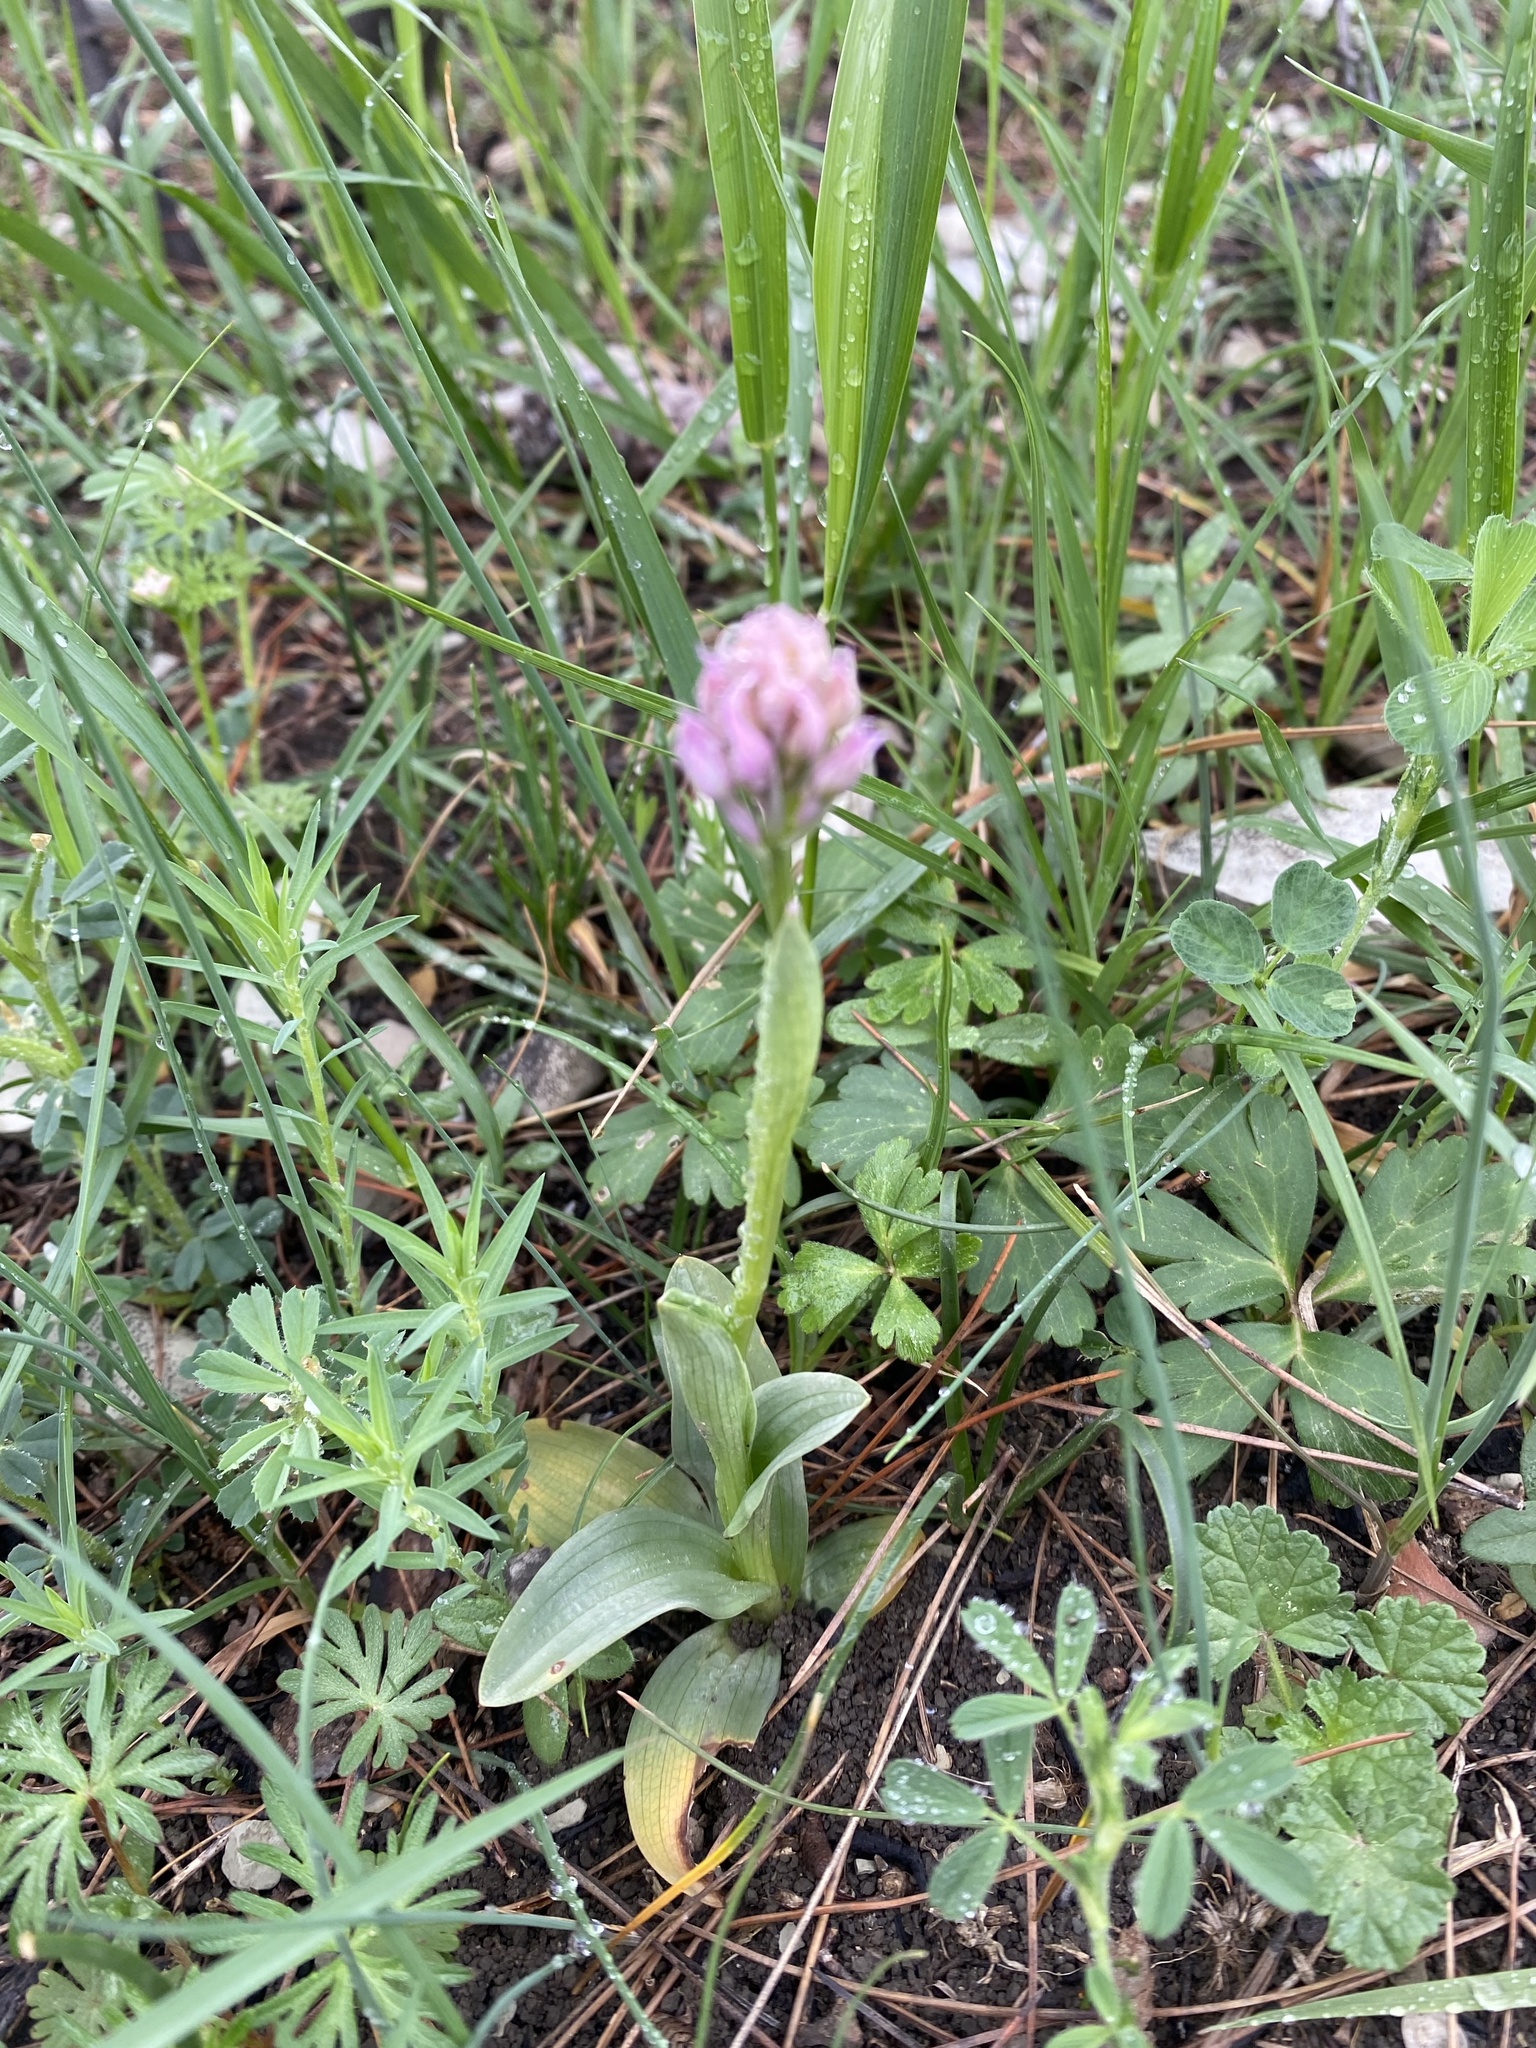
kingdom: Plantae
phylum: Tracheophyta
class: Liliopsida
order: Asparagales
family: Orchidaceae
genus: Neotinea
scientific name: Neotinea tridentata
